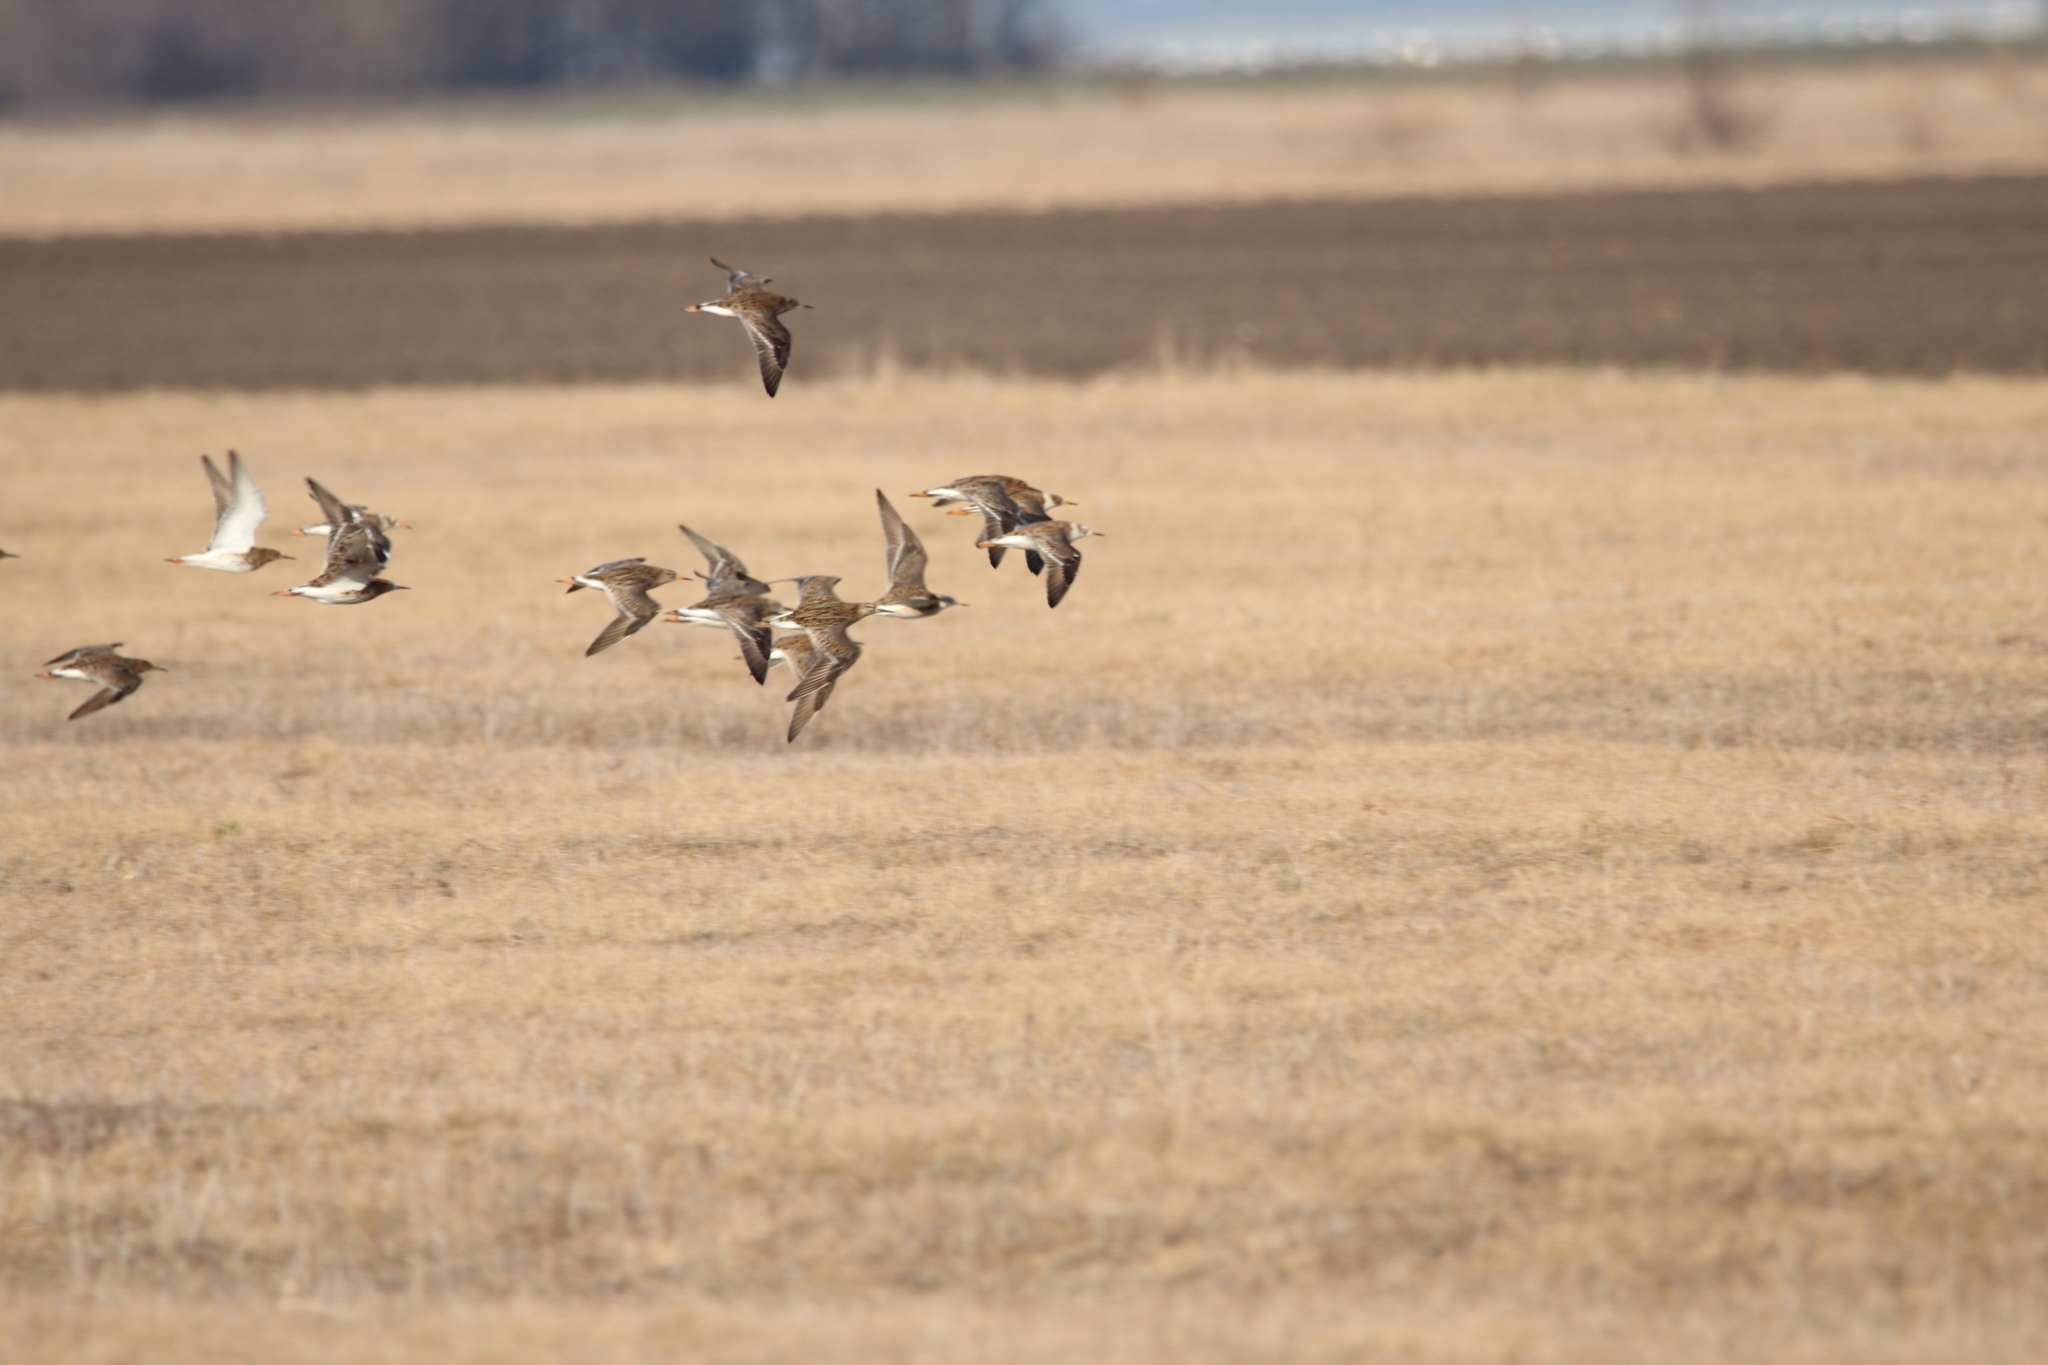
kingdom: Animalia
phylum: Chordata
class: Aves
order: Charadriiformes
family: Scolopacidae
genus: Calidris
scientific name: Calidris pugnax
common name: Ruff
